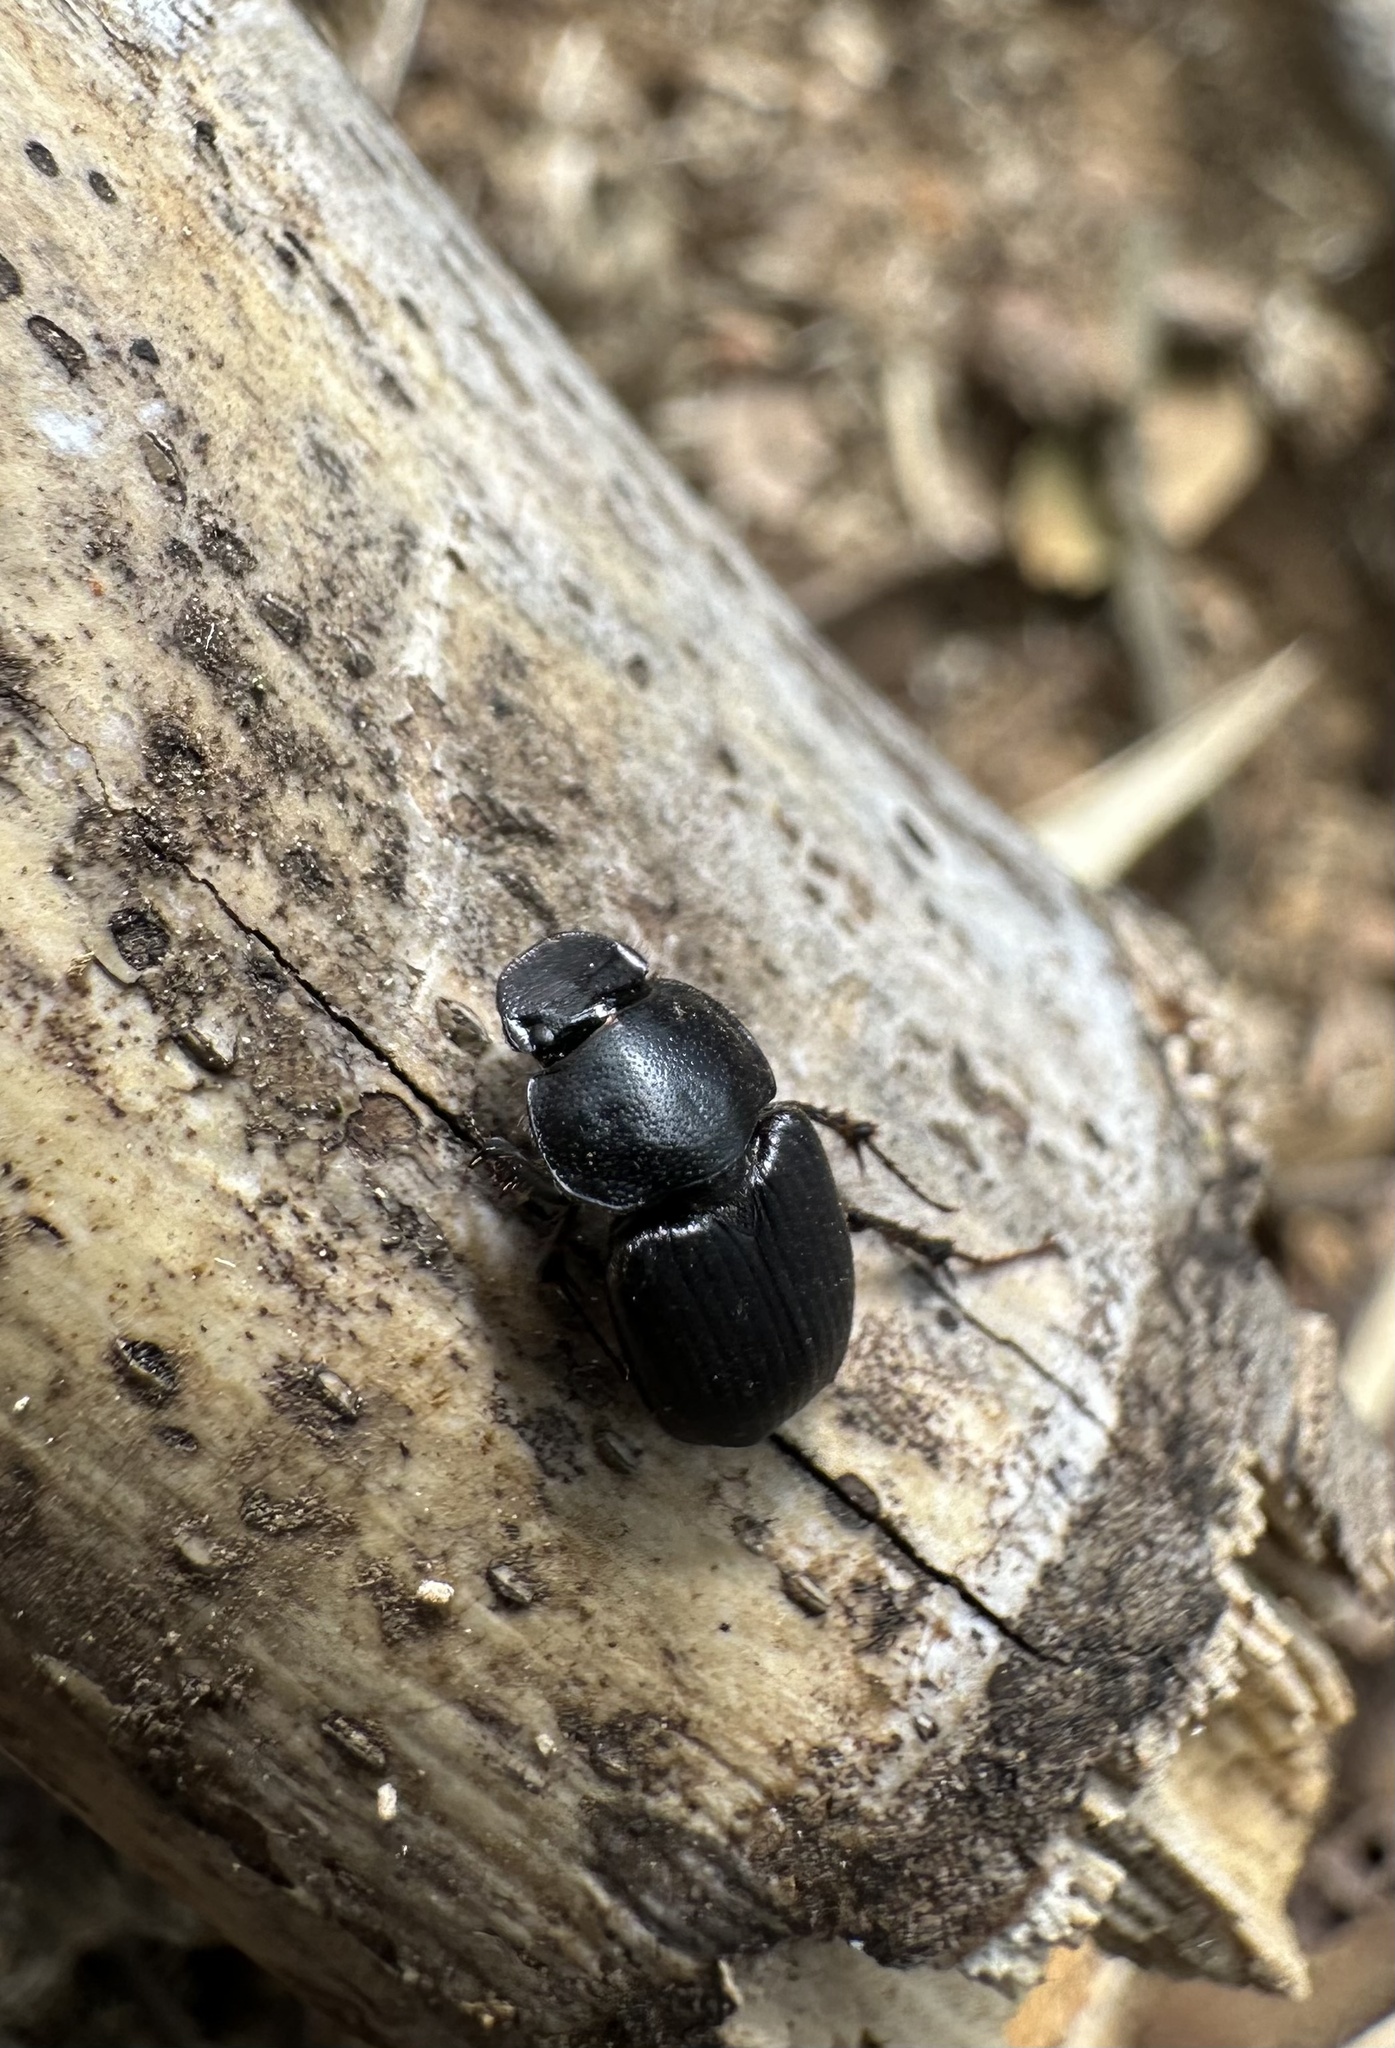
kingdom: Animalia
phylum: Arthropoda
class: Insecta
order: Coleoptera
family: Scarabaeidae
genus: Pseudopodotenus
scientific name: Pseudopodotenus fulviventris
